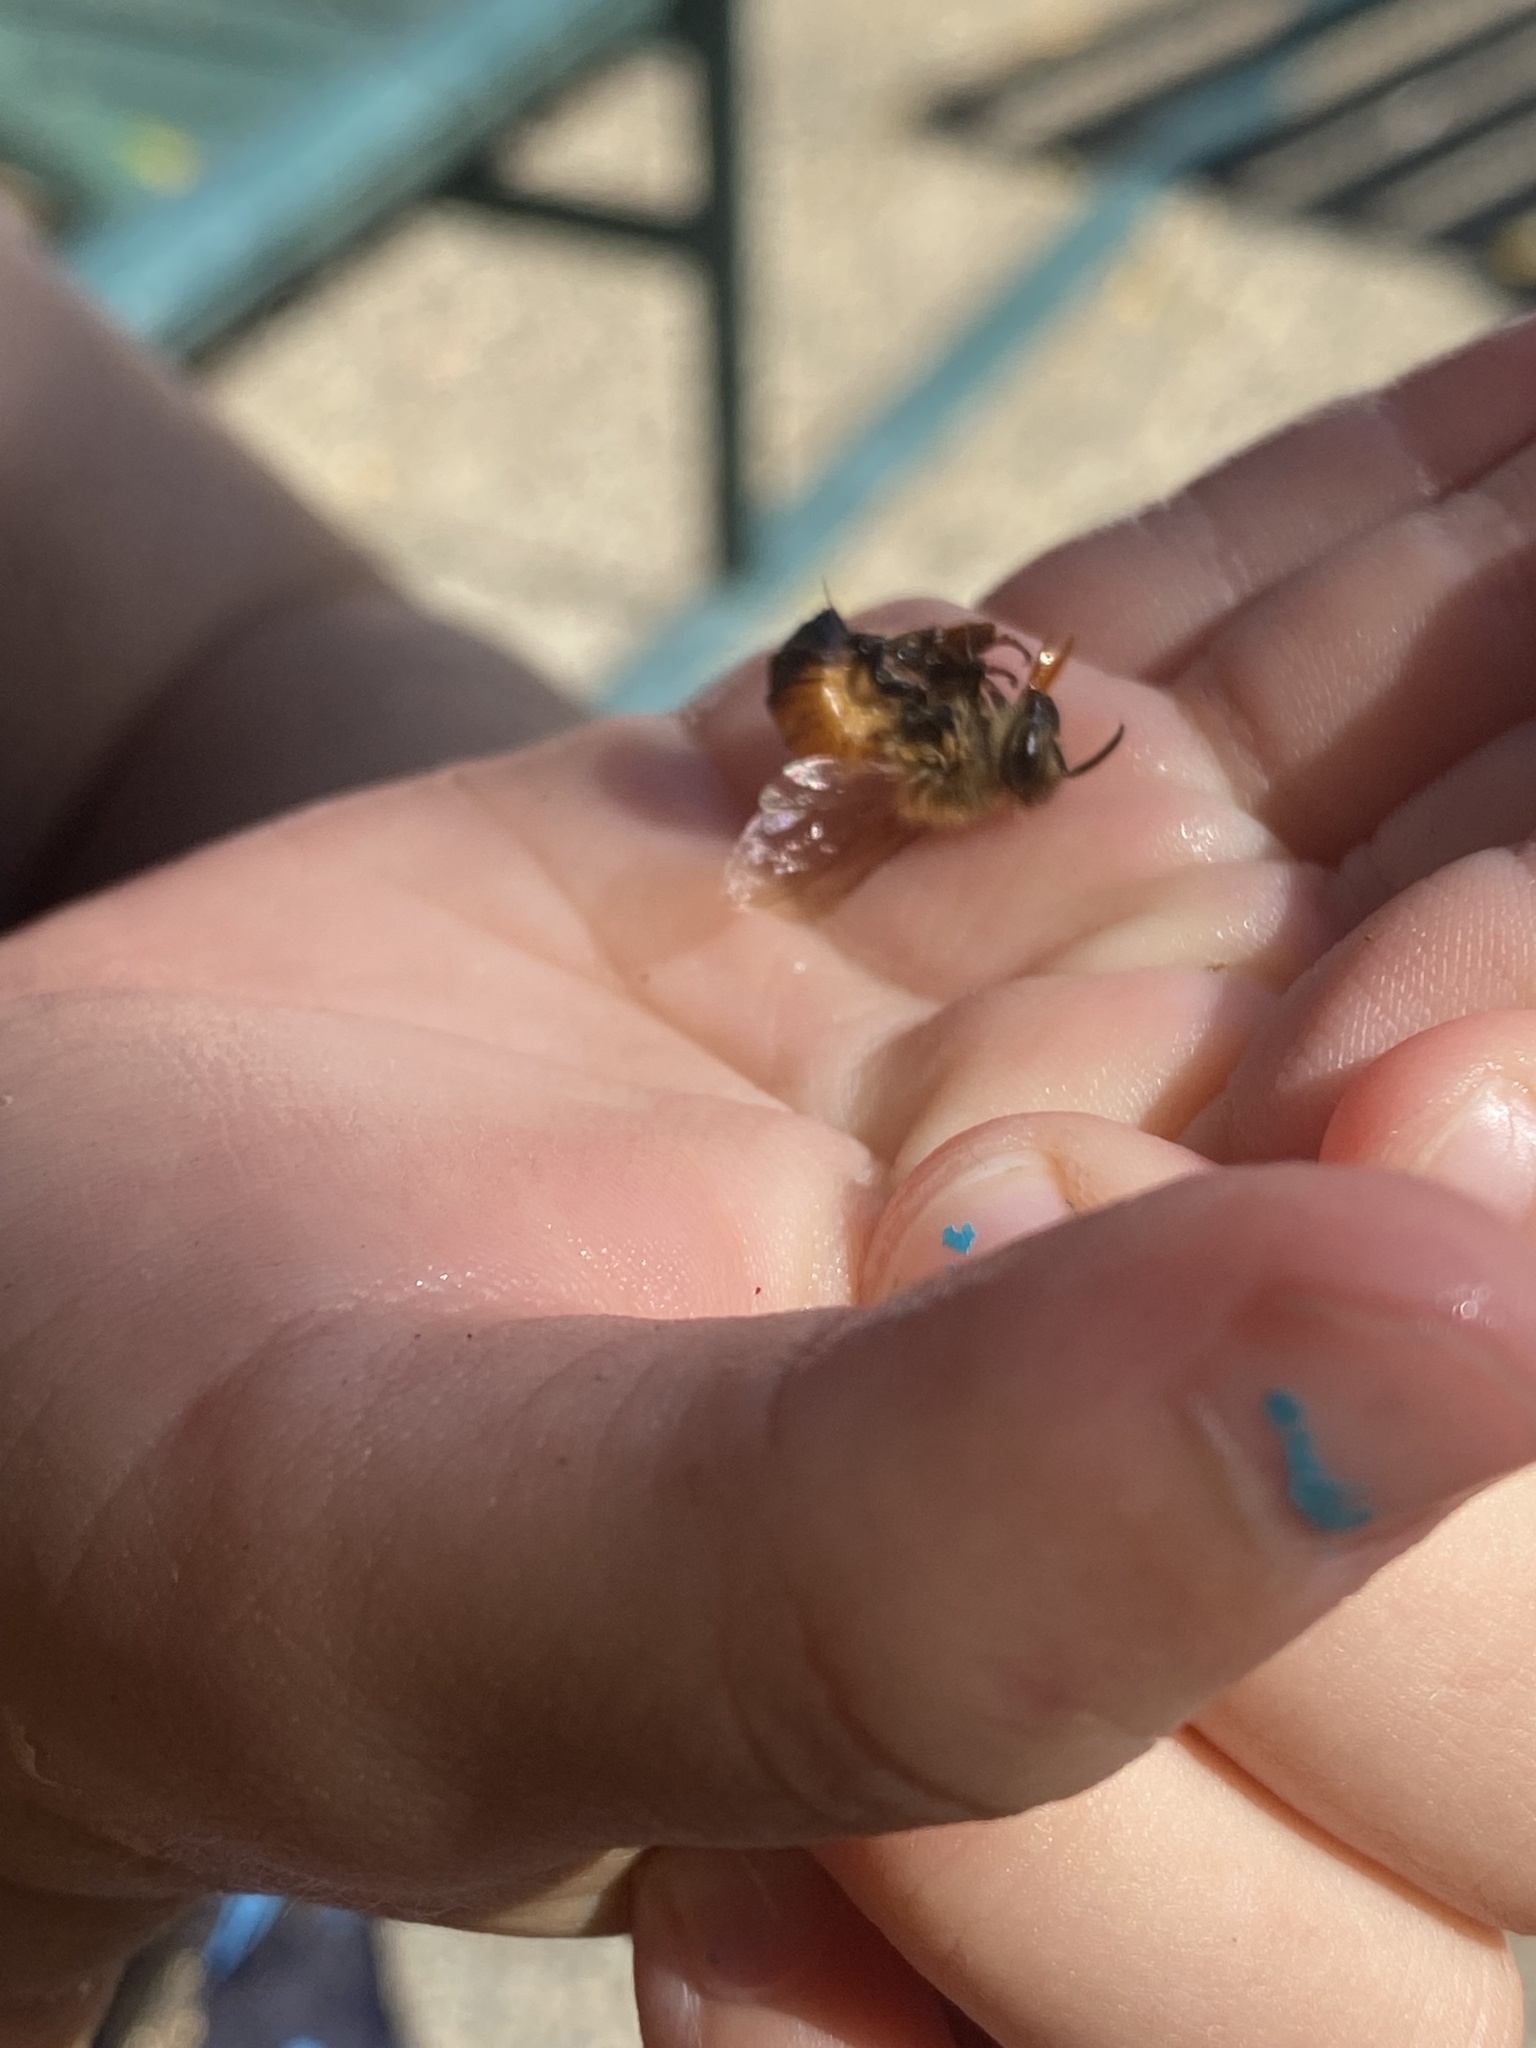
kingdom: Animalia
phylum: Arthropoda
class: Insecta
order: Hymenoptera
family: Apidae
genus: Apis
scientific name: Apis mellifera
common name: Honey bee
